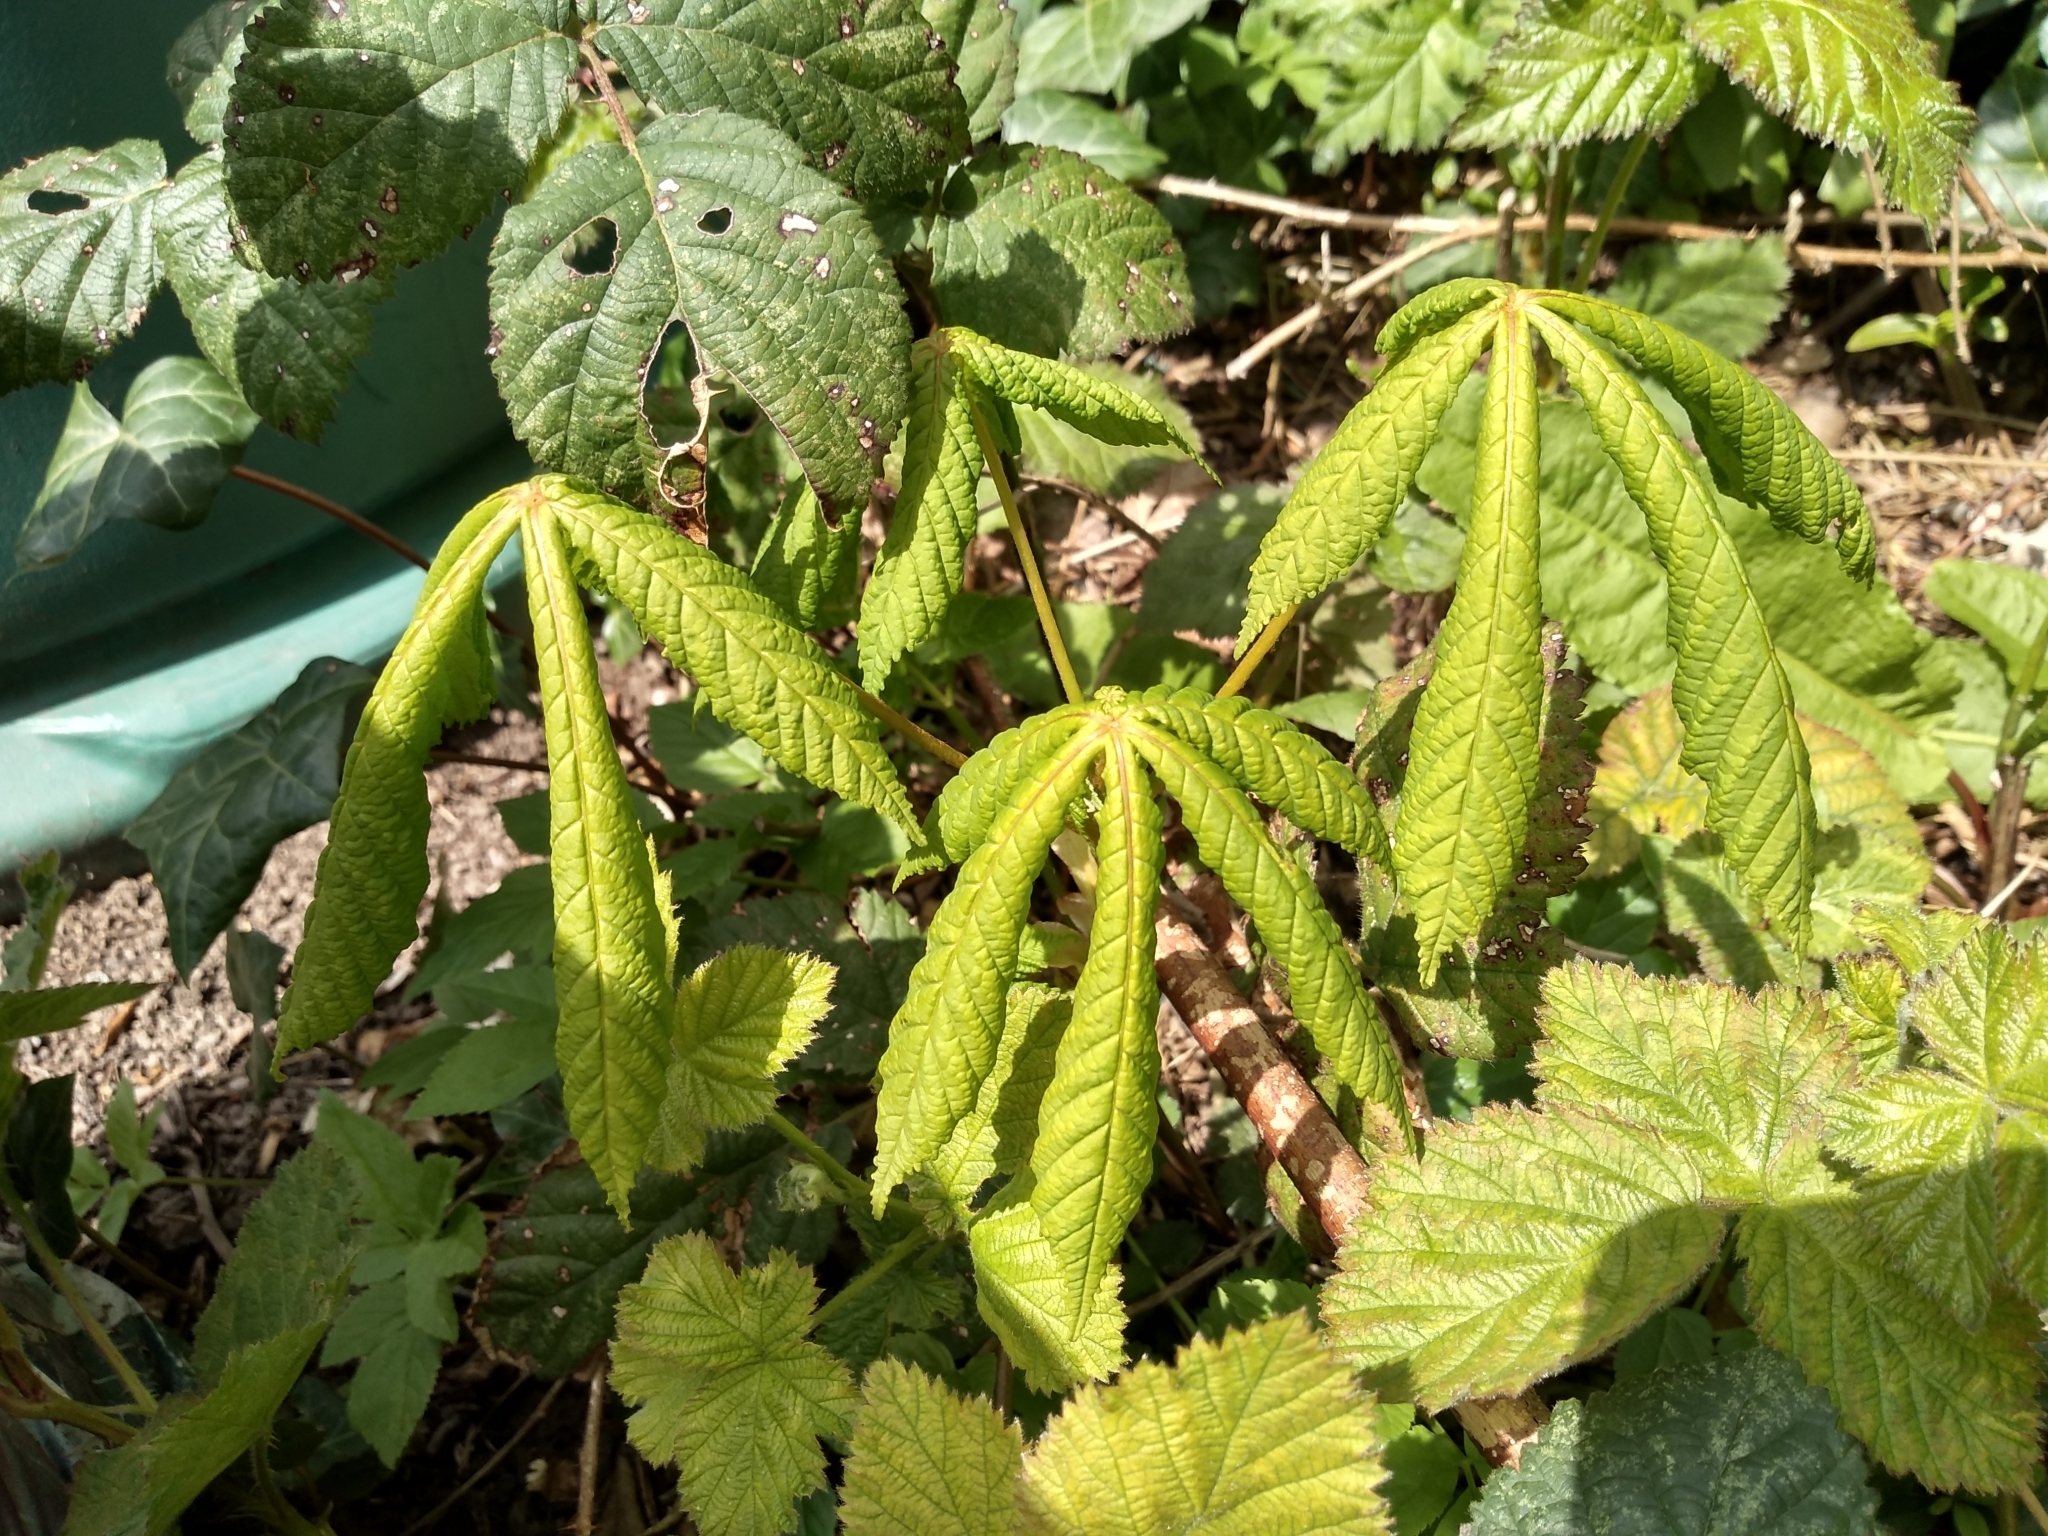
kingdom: Plantae
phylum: Tracheophyta
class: Magnoliopsida
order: Sapindales
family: Sapindaceae
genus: Aesculus
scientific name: Aesculus hippocastanum
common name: Horse-chestnut
